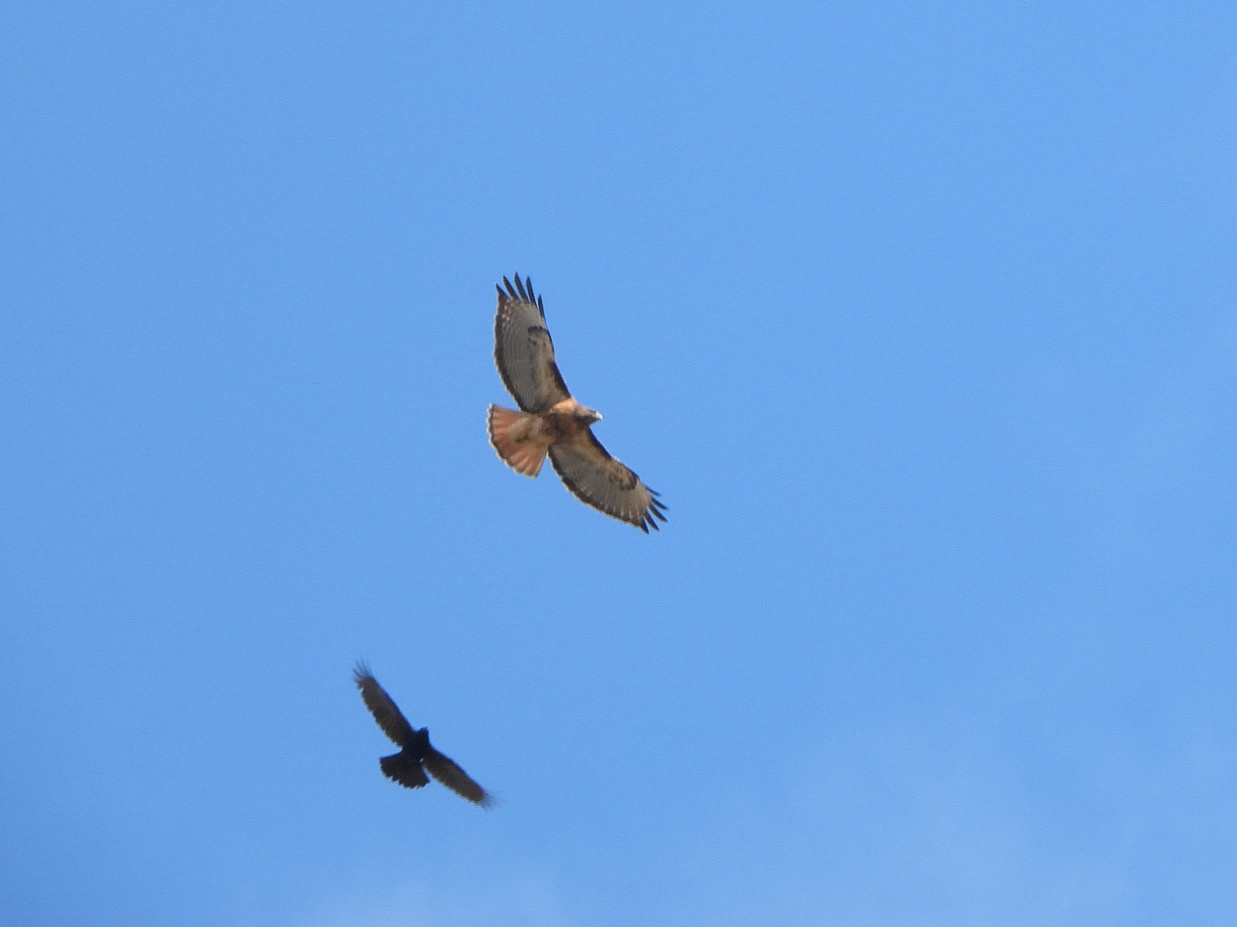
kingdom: Animalia
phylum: Chordata
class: Aves
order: Accipitriformes
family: Accipitridae
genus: Buteo
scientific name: Buteo jamaicensis
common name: Red-tailed hawk
